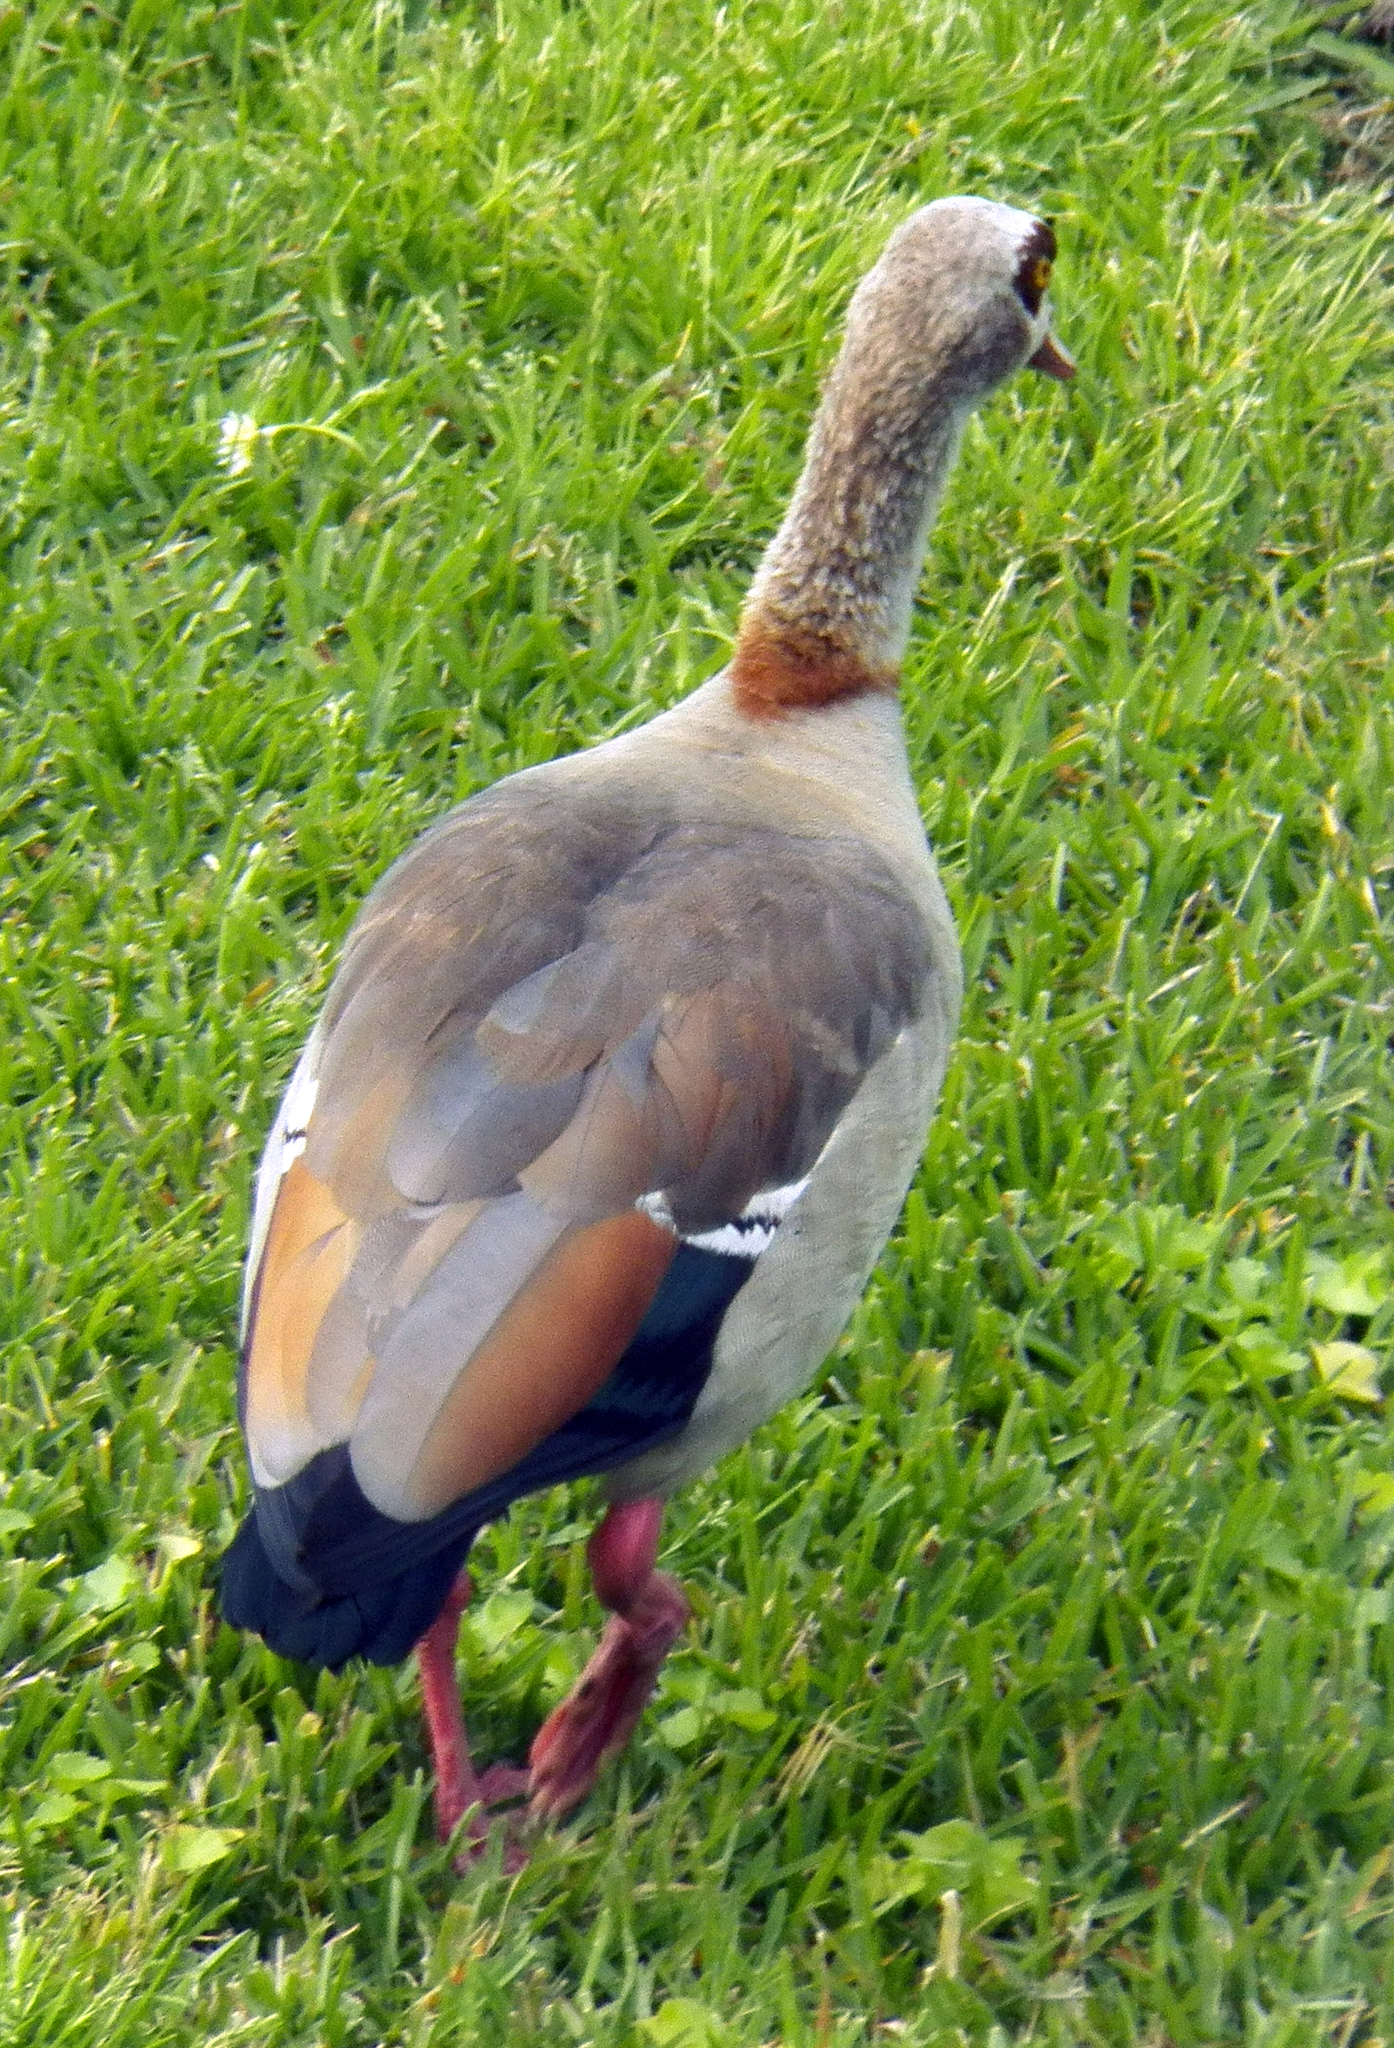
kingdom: Animalia
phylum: Chordata
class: Aves
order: Anseriformes
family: Anatidae
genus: Alopochen
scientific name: Alopochen aegyptiaca
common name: Egyptian goose
